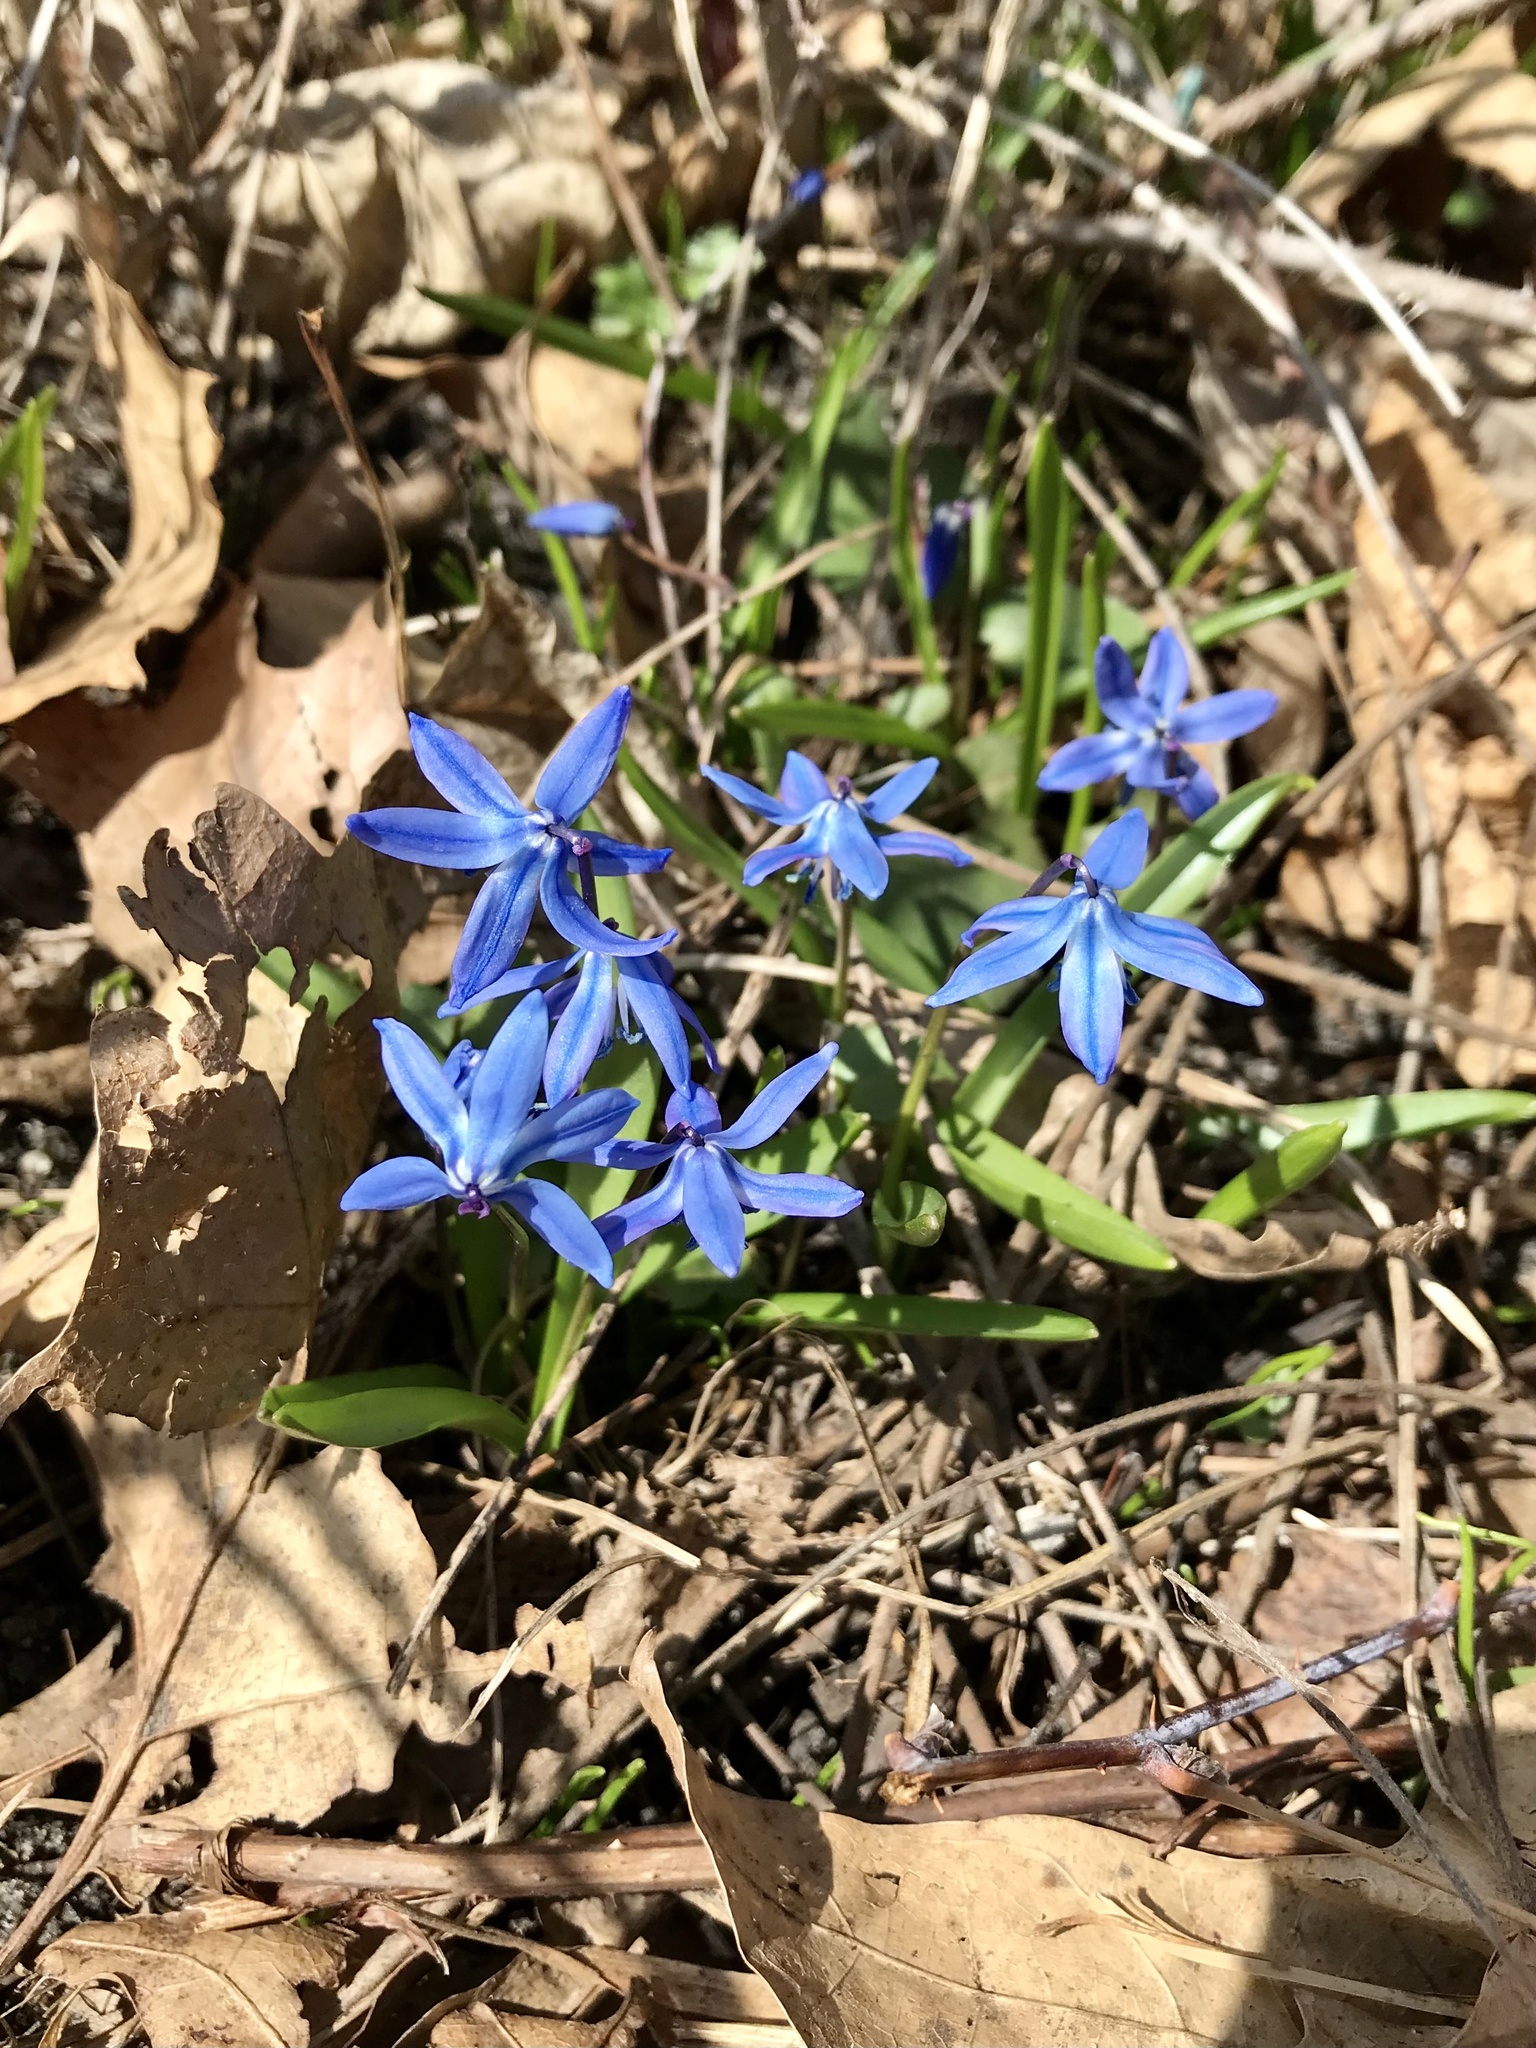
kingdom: Plantae
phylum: Tracheophyta
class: Liliopsida
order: Asparagales
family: Asparagaceae
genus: Scilla
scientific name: Scilla siberica
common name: Siberian squill
